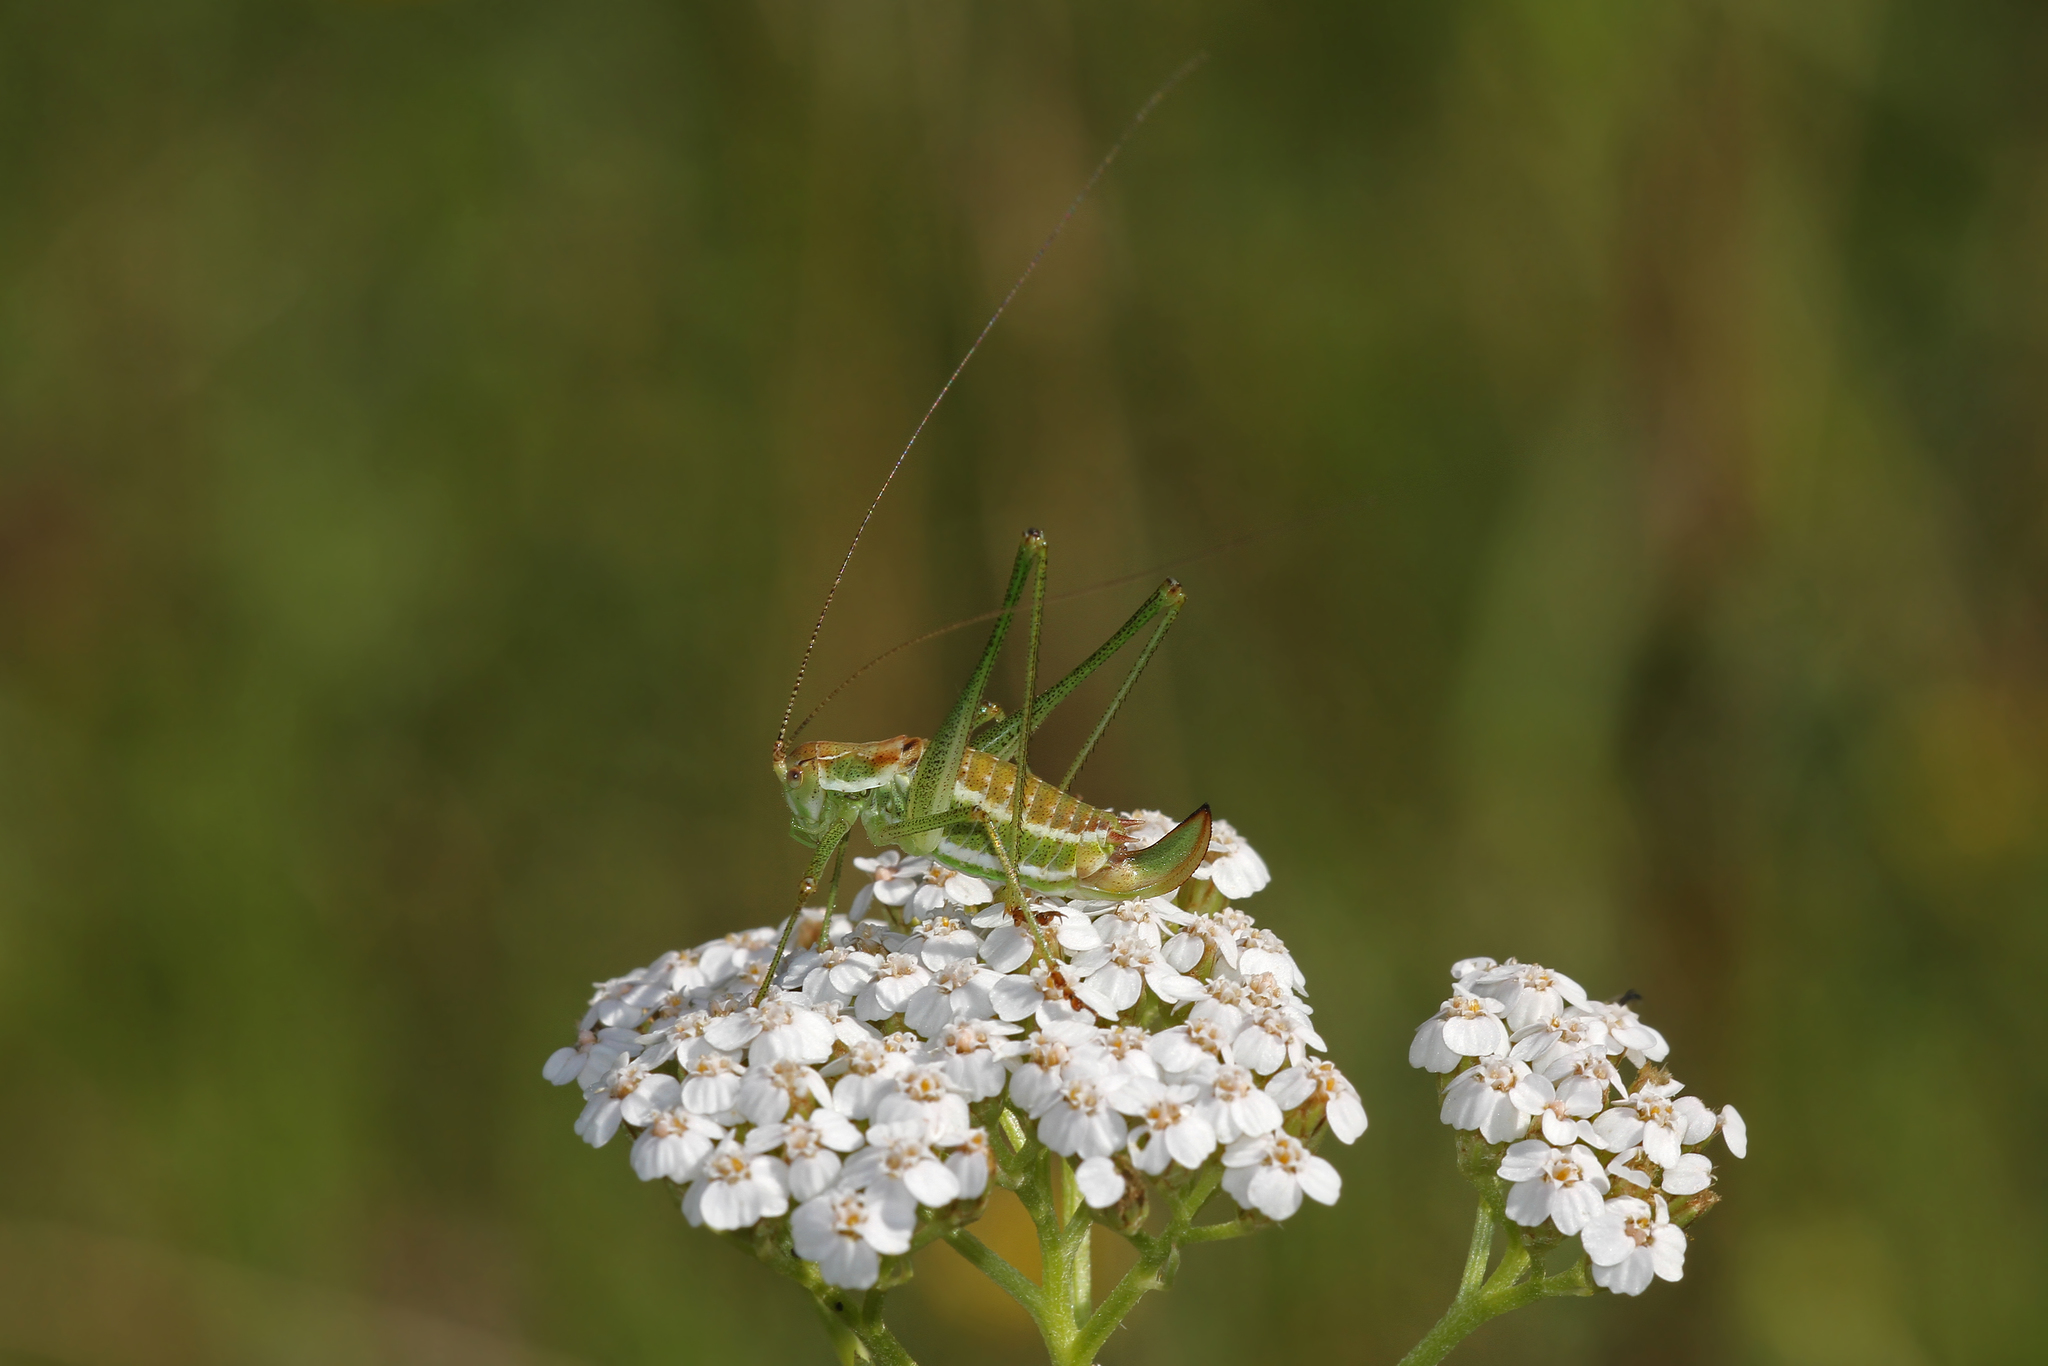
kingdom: Animalia
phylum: Arthropoda
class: Insecta
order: Orthoptera
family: Tettigoniidae
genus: Leptophyes
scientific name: Leptophyes albovittata
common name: Striped bush-cricket
